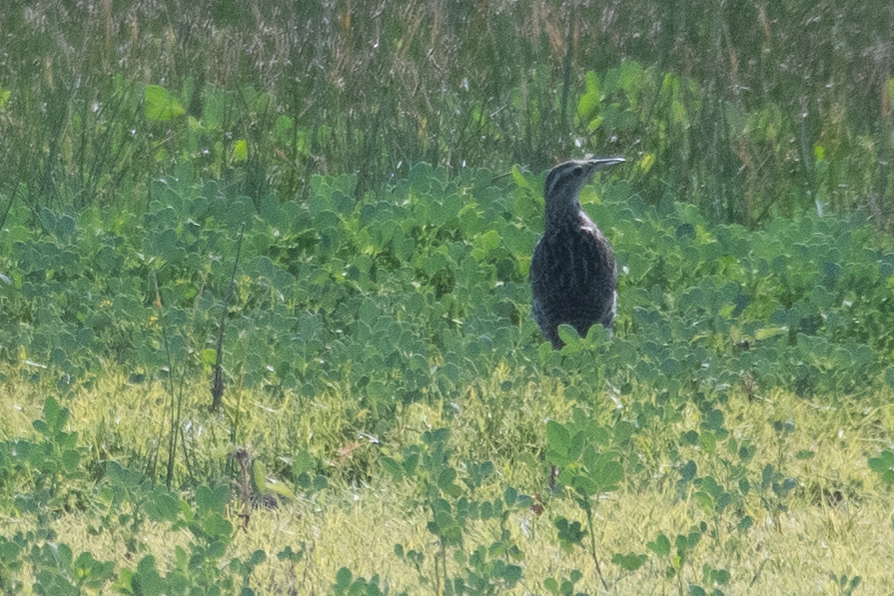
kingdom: Animalia
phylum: Chordata
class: Aves
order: Passeriformes
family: Icteridae
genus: Sturnella
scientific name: Sturnella neglecta
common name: Western meadowlark
